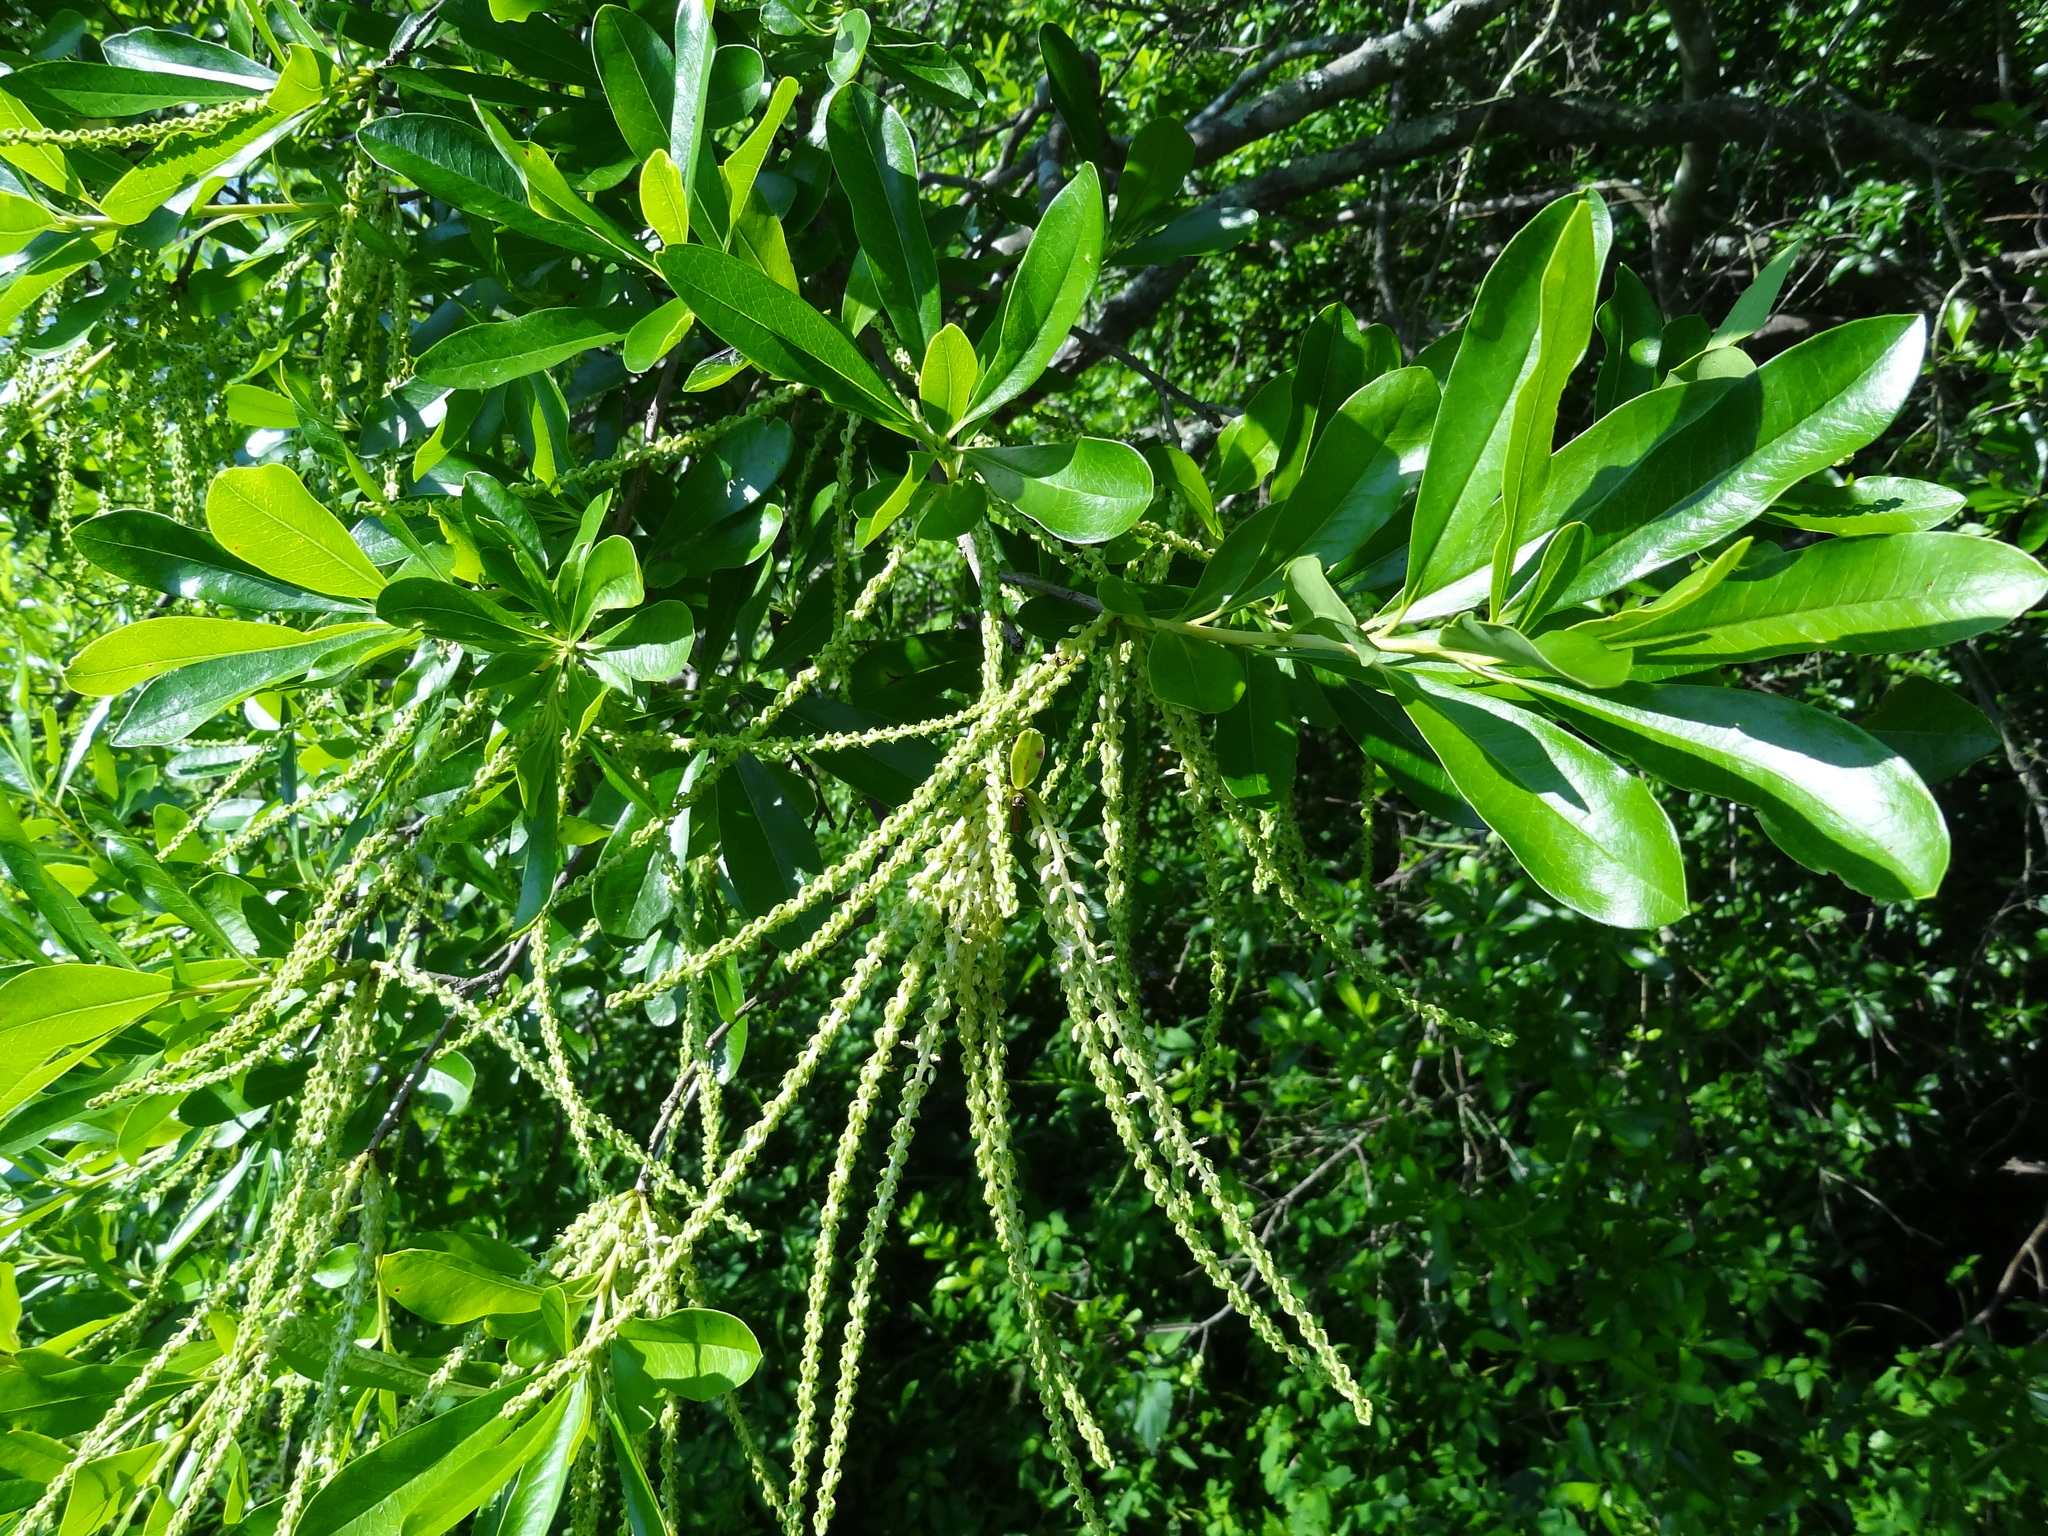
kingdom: Plantae
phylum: Tracheophyta
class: Magnoliopsida
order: Ericales
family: Cyrillaceae
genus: Cyrilla
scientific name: Cyrilla racemiflora
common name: Black titi
